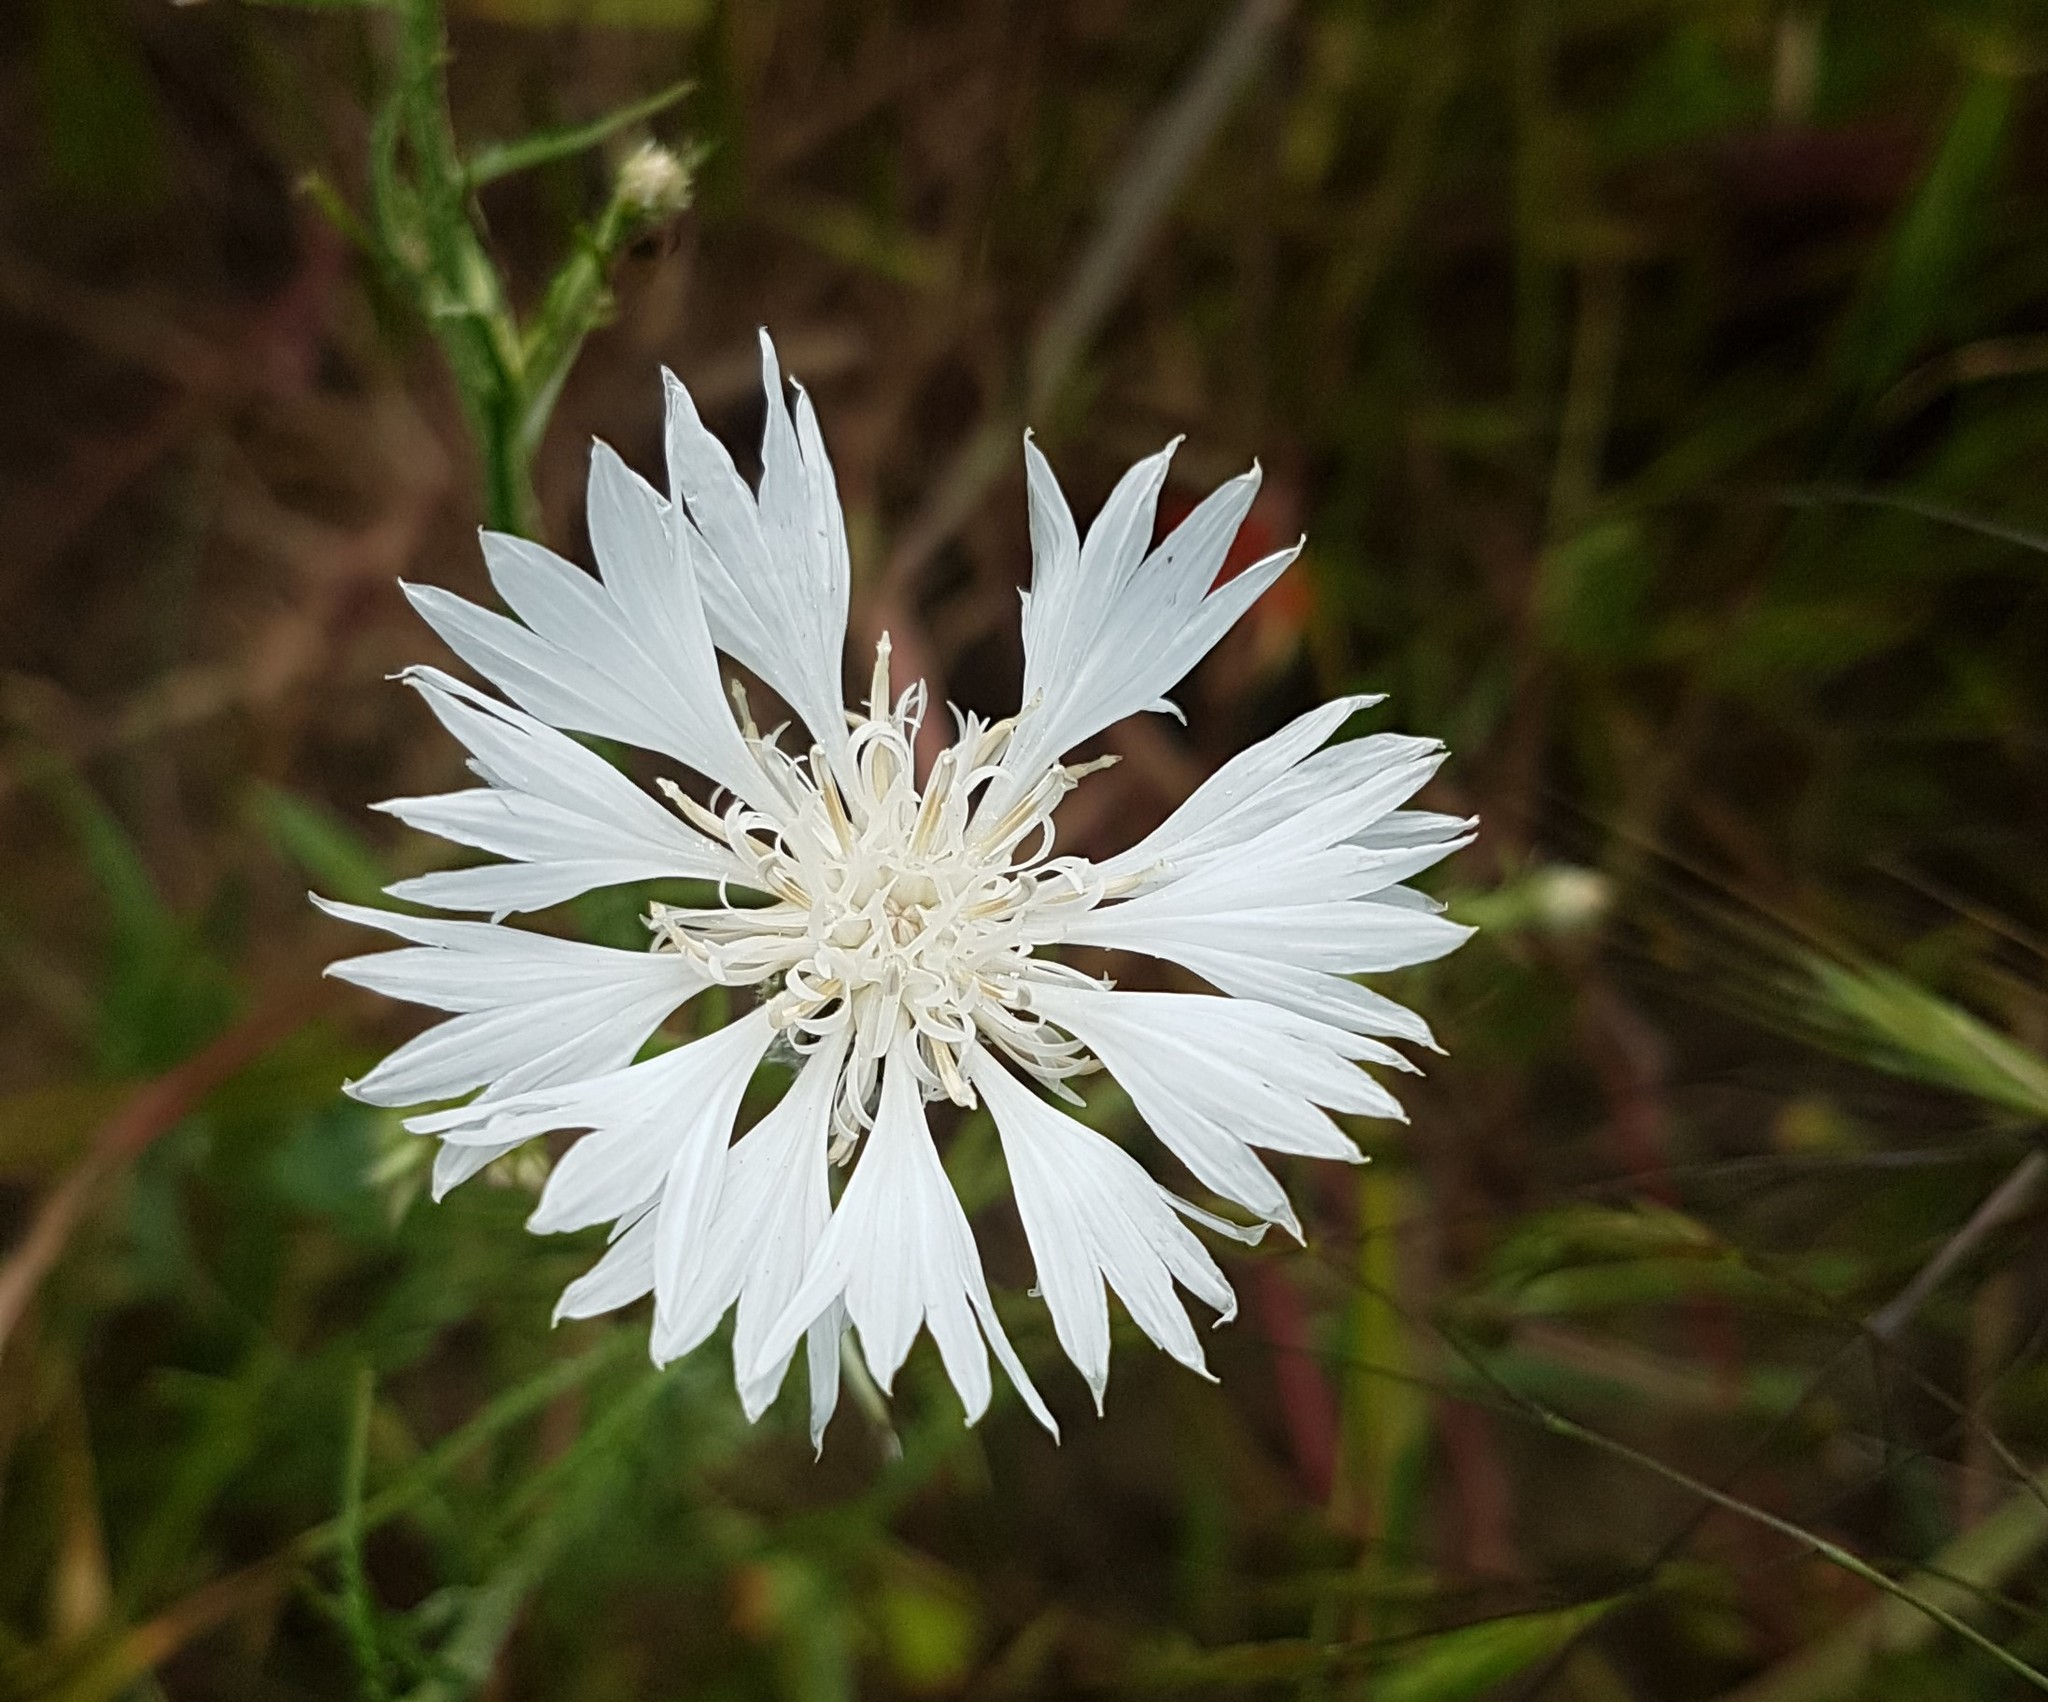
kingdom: Plantae
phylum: Tracheophyta
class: Magnoliopsida
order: Asterales
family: Asteraceae
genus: Centaurea
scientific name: Centaurea cyanus
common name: Cornflower
